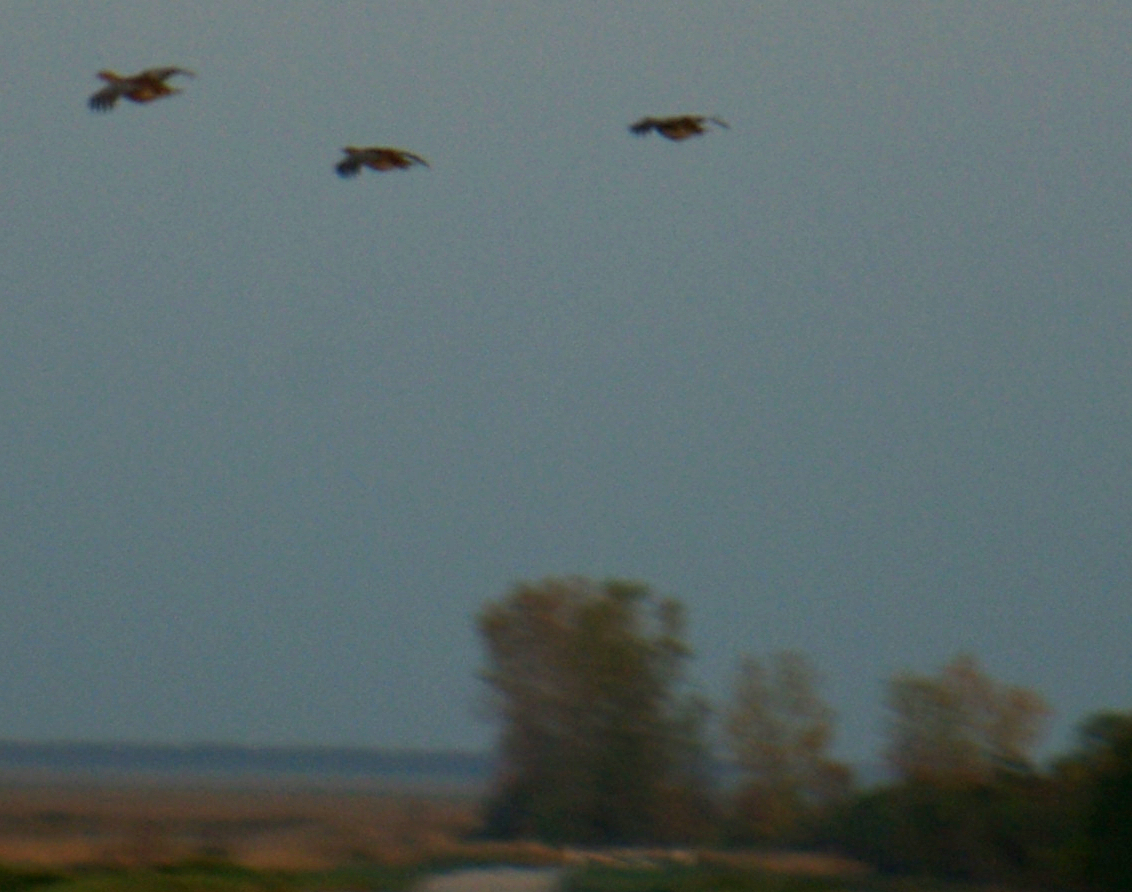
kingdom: Animalia
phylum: Chordata
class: Aves
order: Galliformes
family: Phasianidae
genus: Perdix
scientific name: Perdix perdix
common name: Grey partridge
